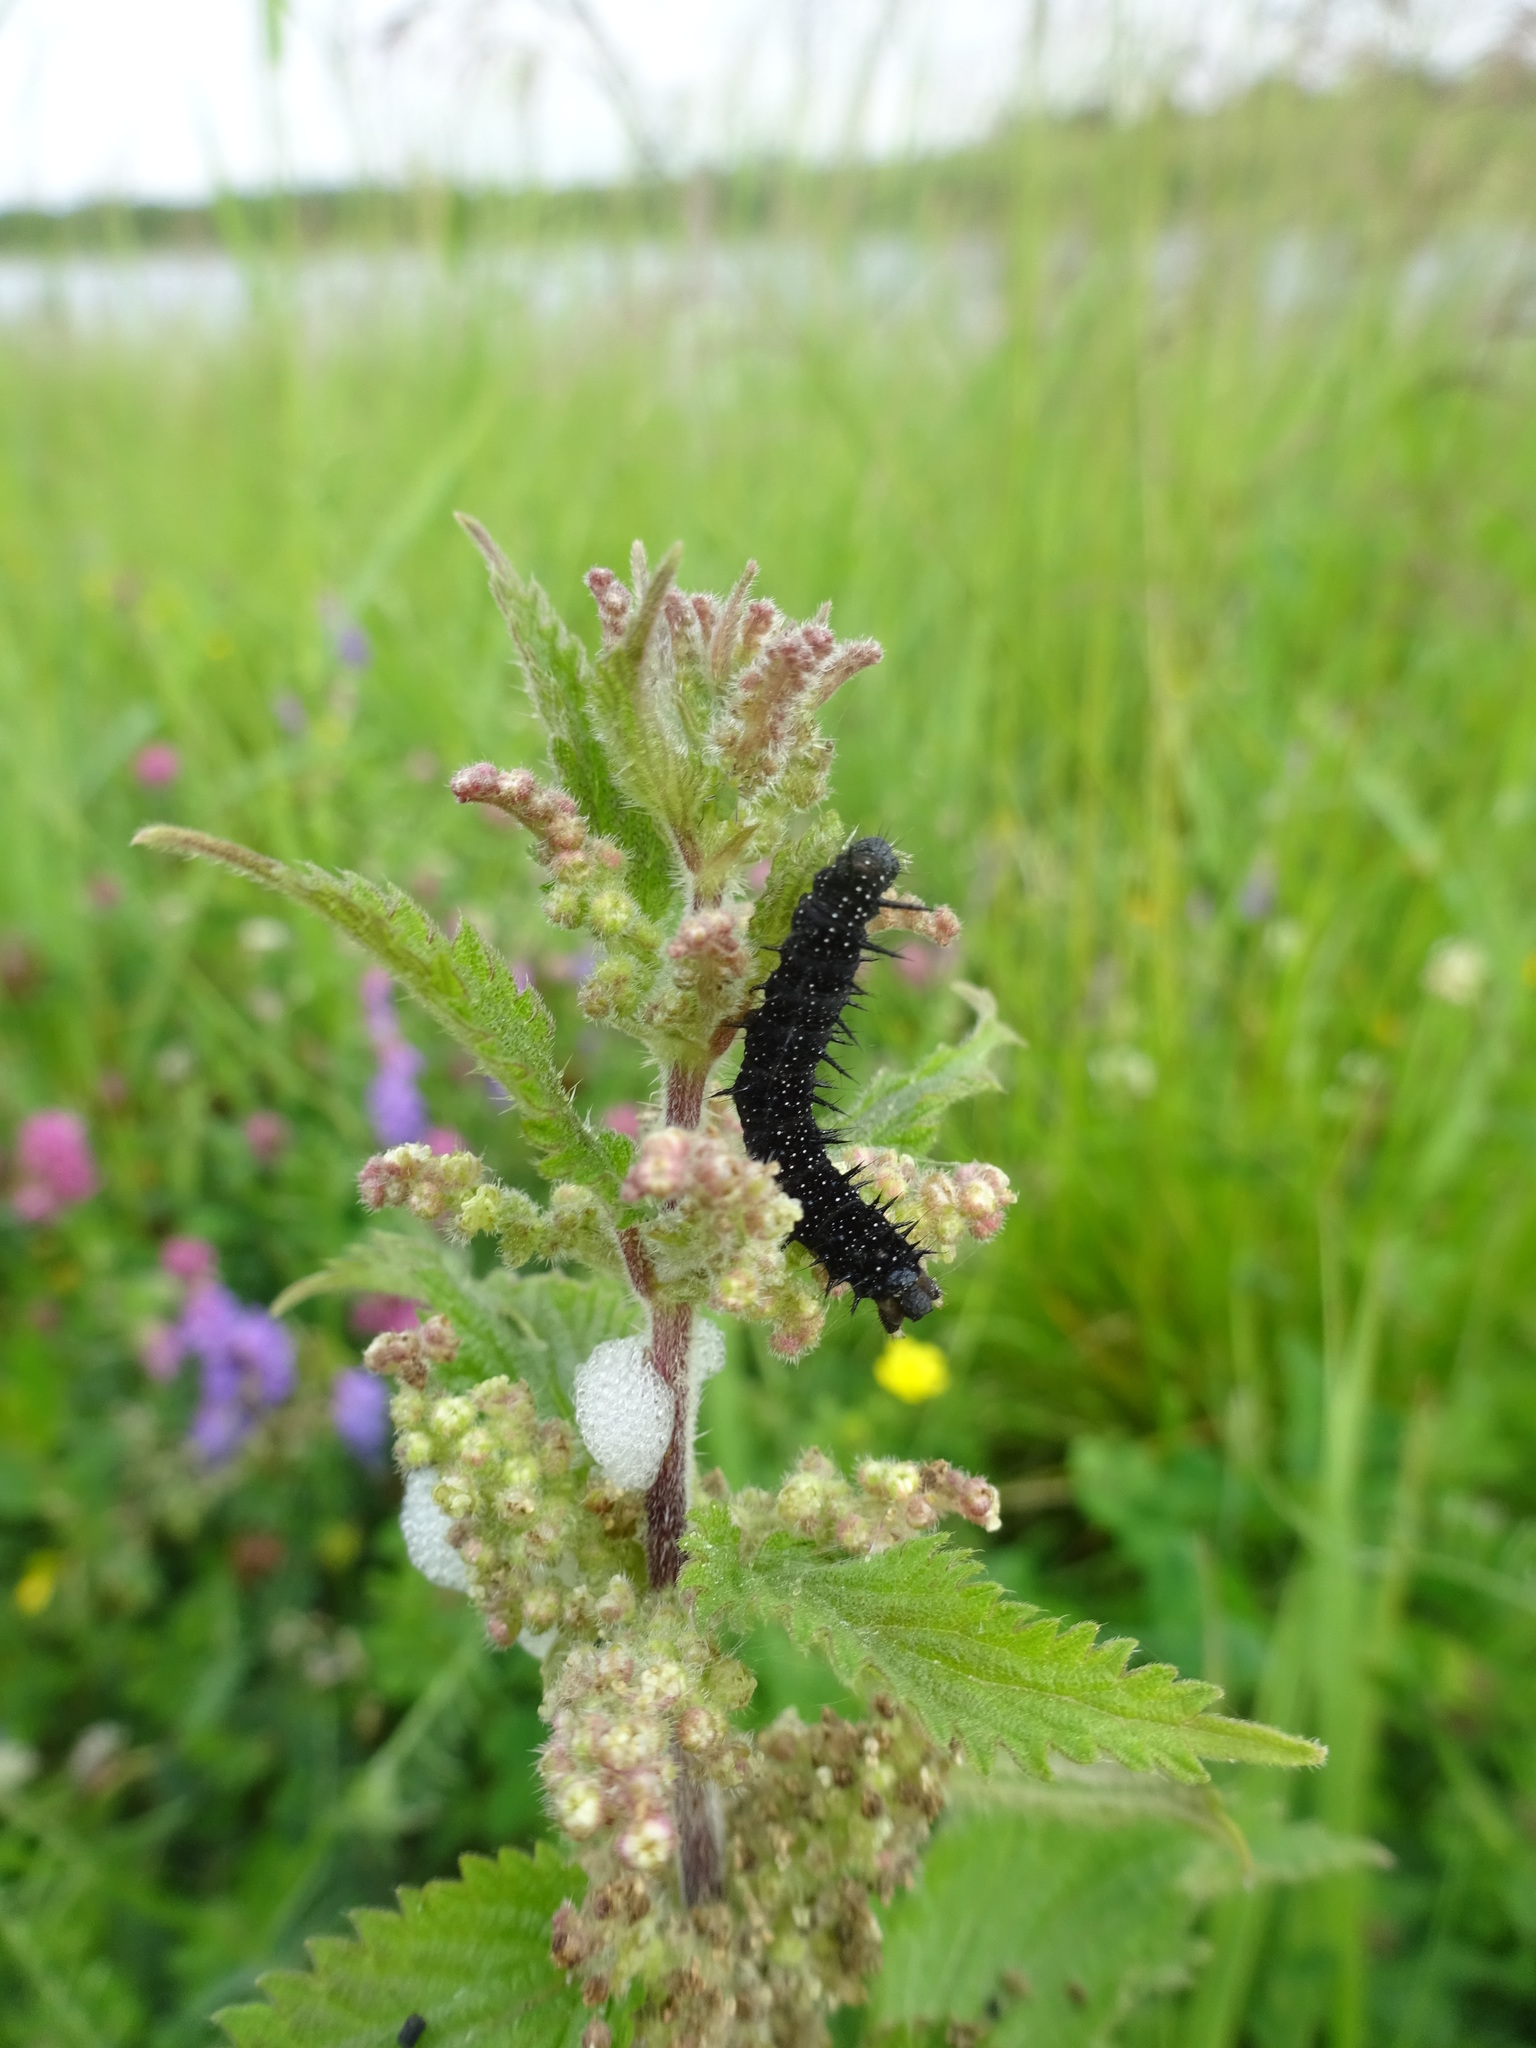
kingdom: Animalia
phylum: Arthropoda
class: Insecta
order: Lepidoptera
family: Nymphalidae
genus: Aglais
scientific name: Aglais io
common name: Peacock
